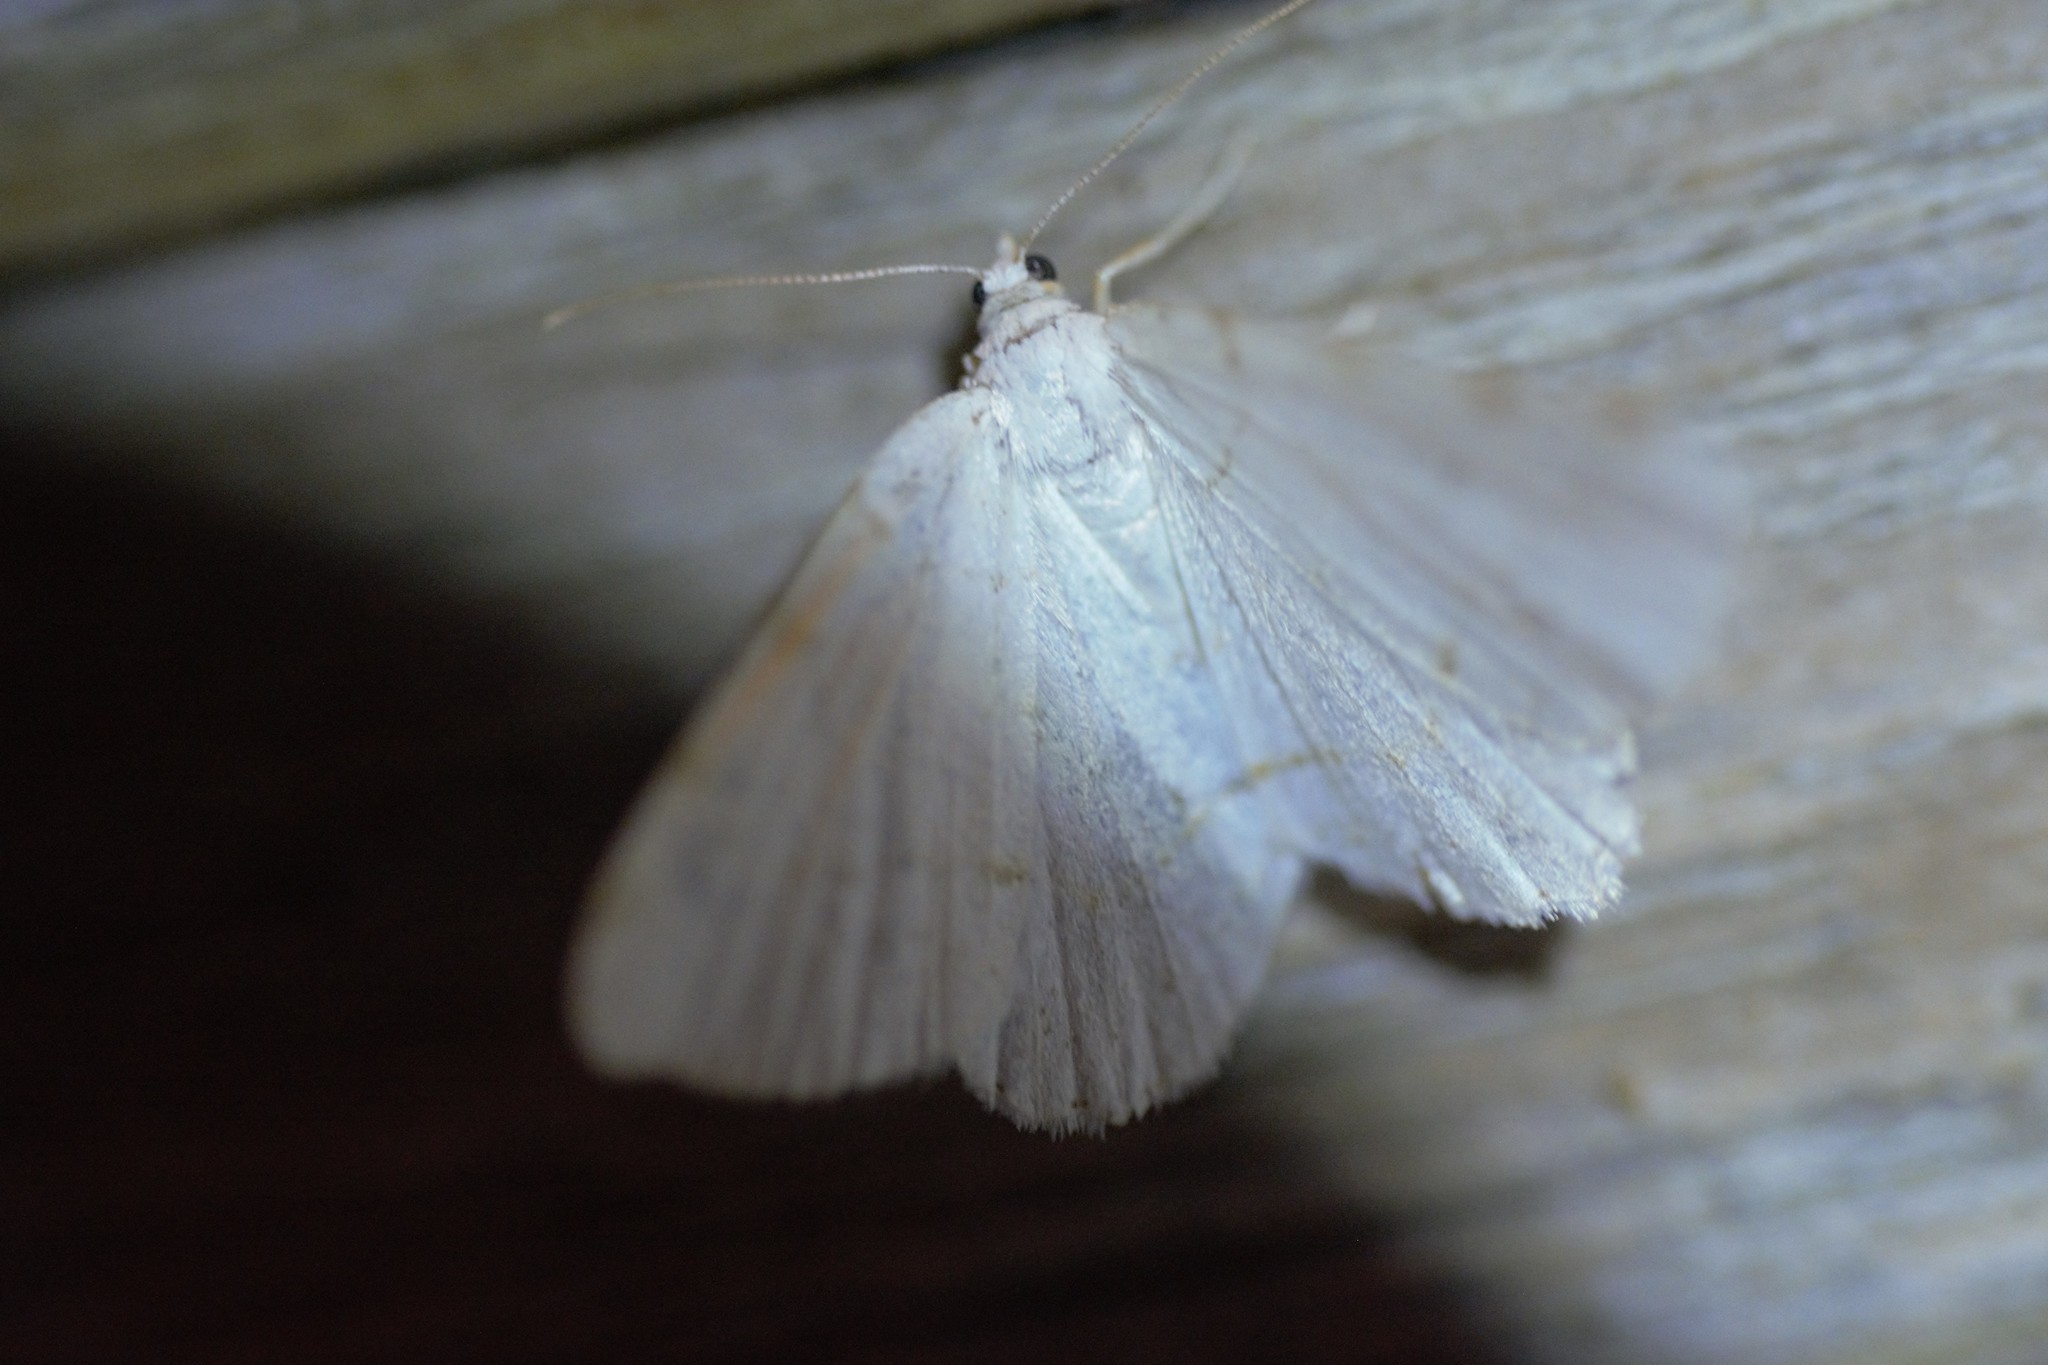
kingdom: Animalia
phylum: Arthropoda
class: Insecta
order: Lepidoptera
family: Geometridae
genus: Macaria
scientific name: Macaria pustularia
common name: Lesser maple spanworm moth
